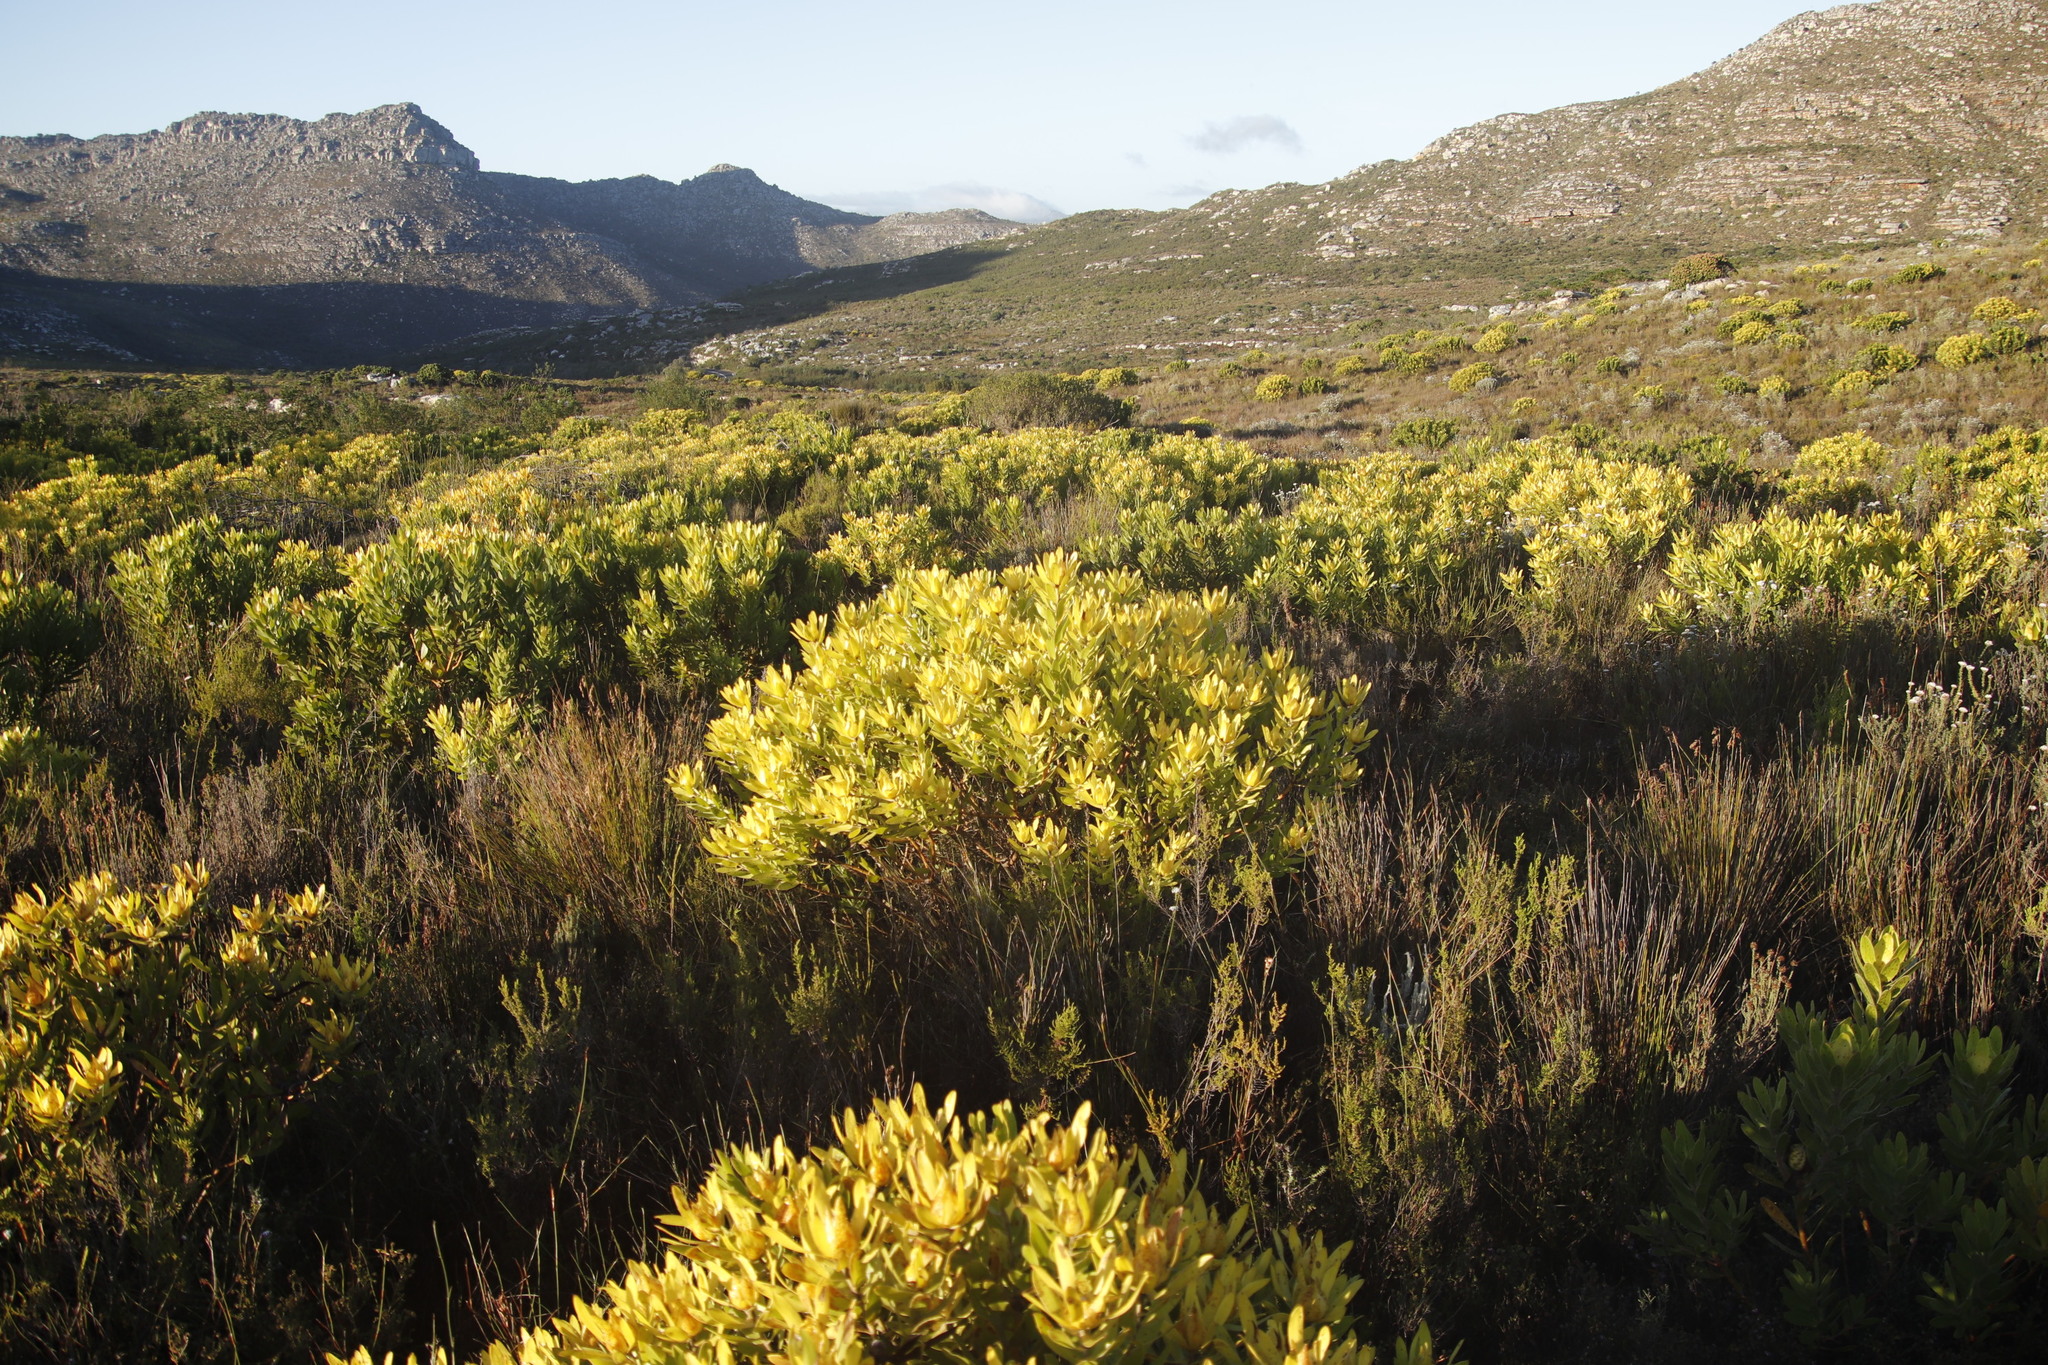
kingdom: Plantae
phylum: Tracheophyta
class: Magnoliopsida
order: Proteales
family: Proteaceae
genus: Leucadendron
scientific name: Leucadendron laureolum
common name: Golden sunshinebush
